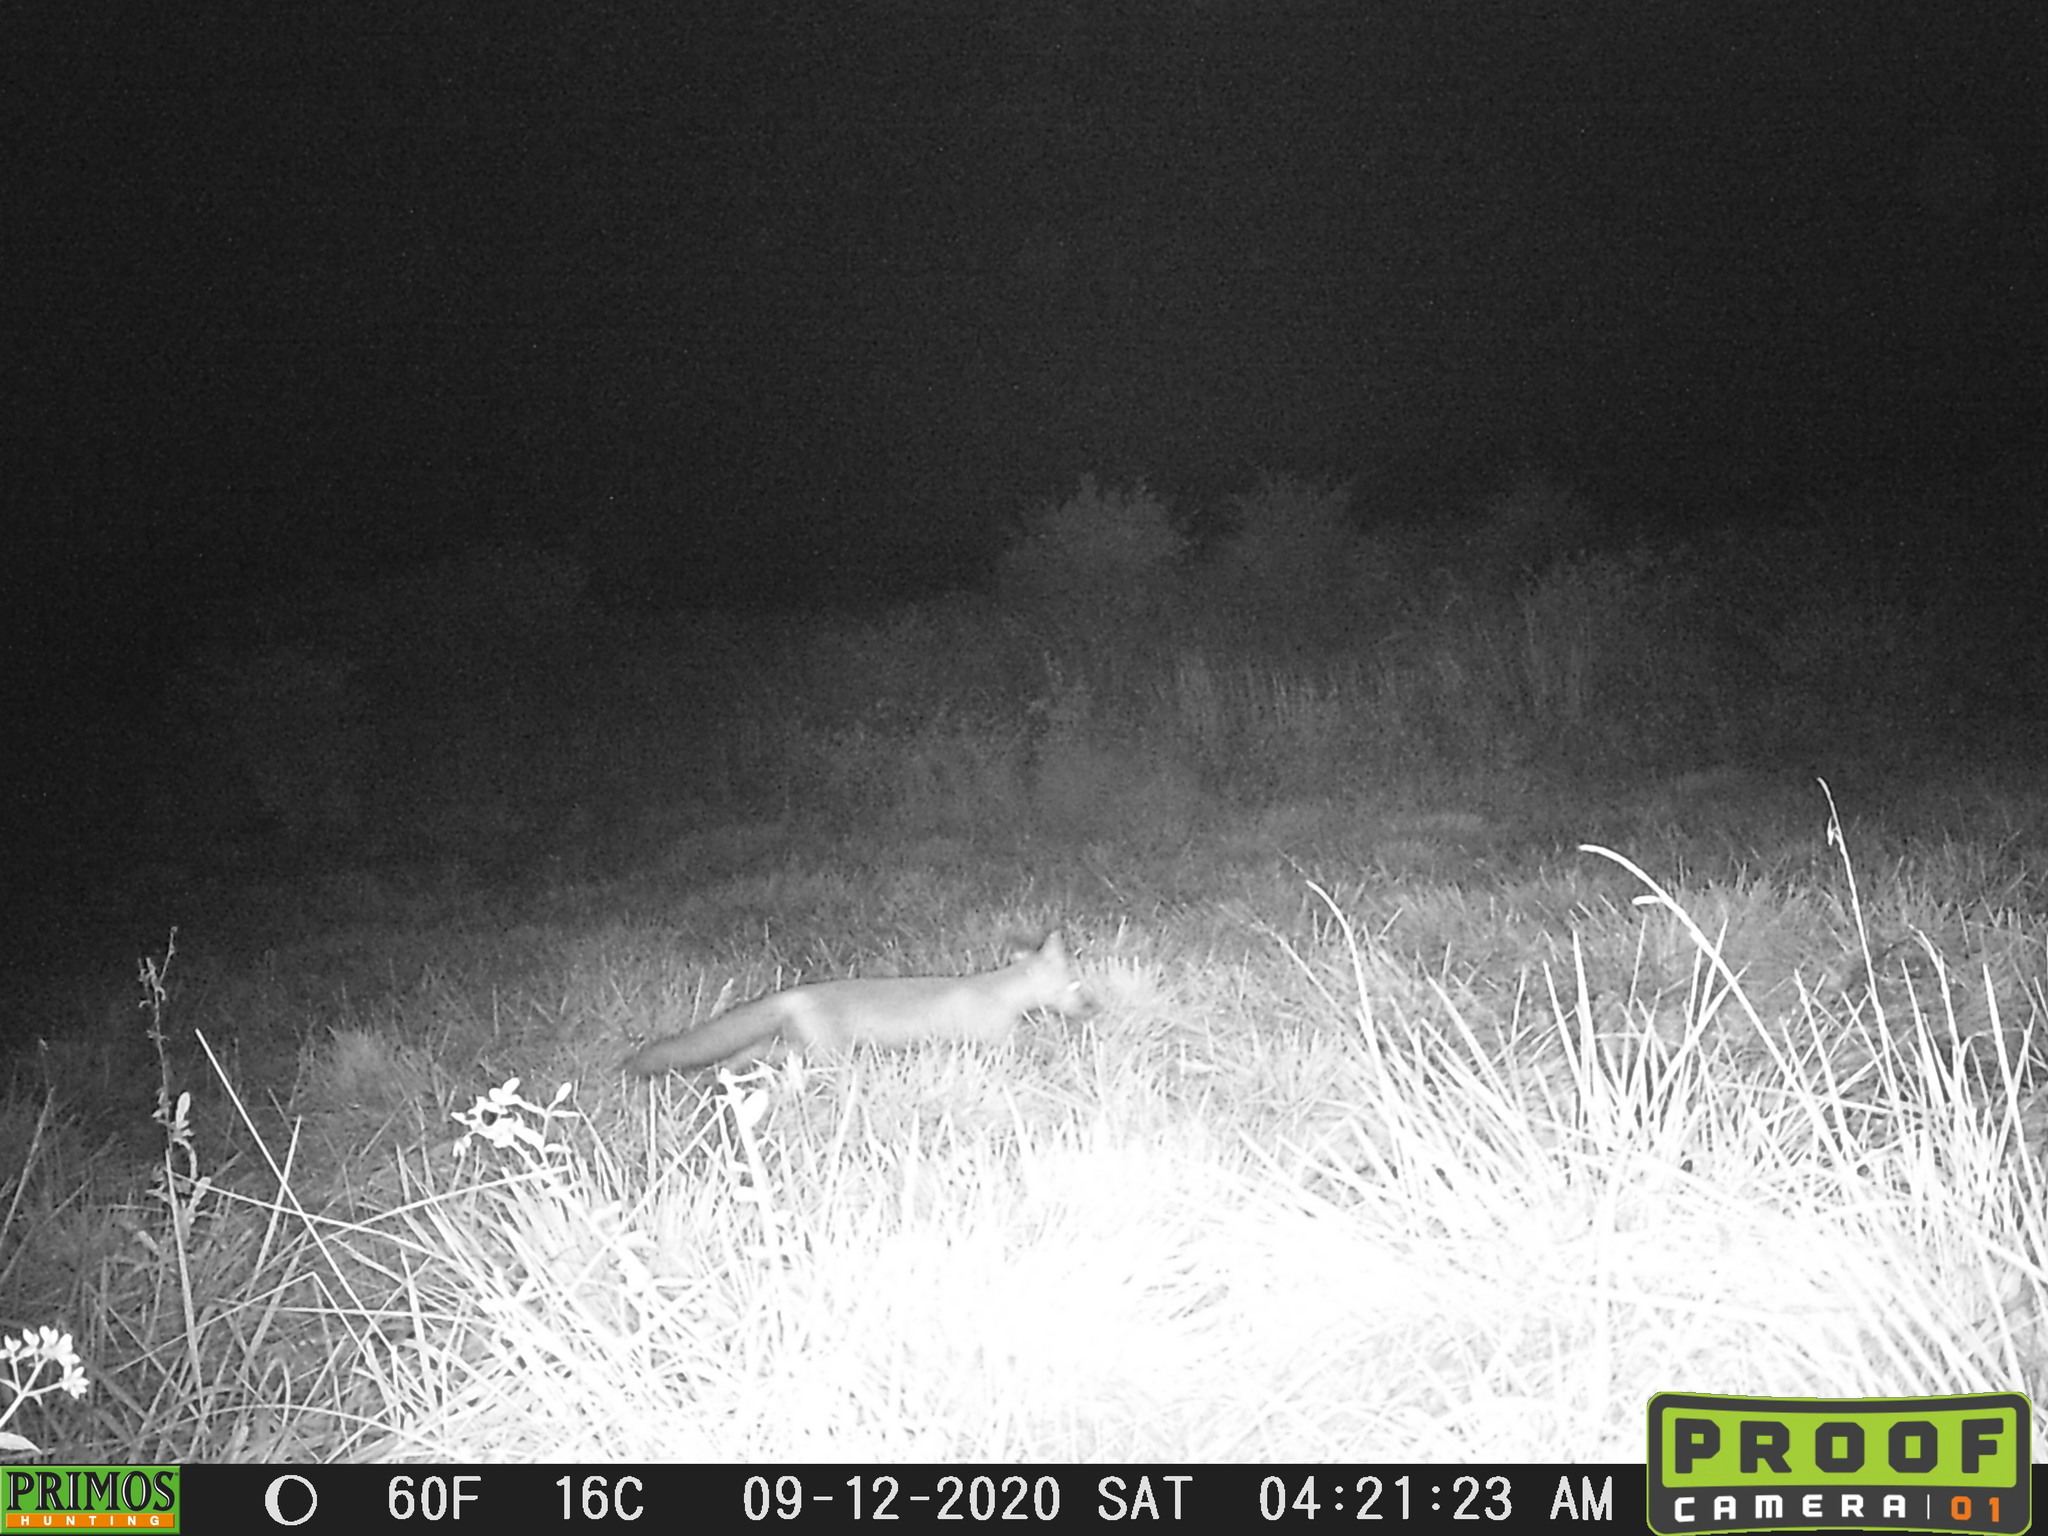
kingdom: Animalia
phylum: Chordata
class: Mammalia
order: Carnivora
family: Canidae
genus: Vulpes
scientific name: Vulpes vulpes
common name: Red fox
